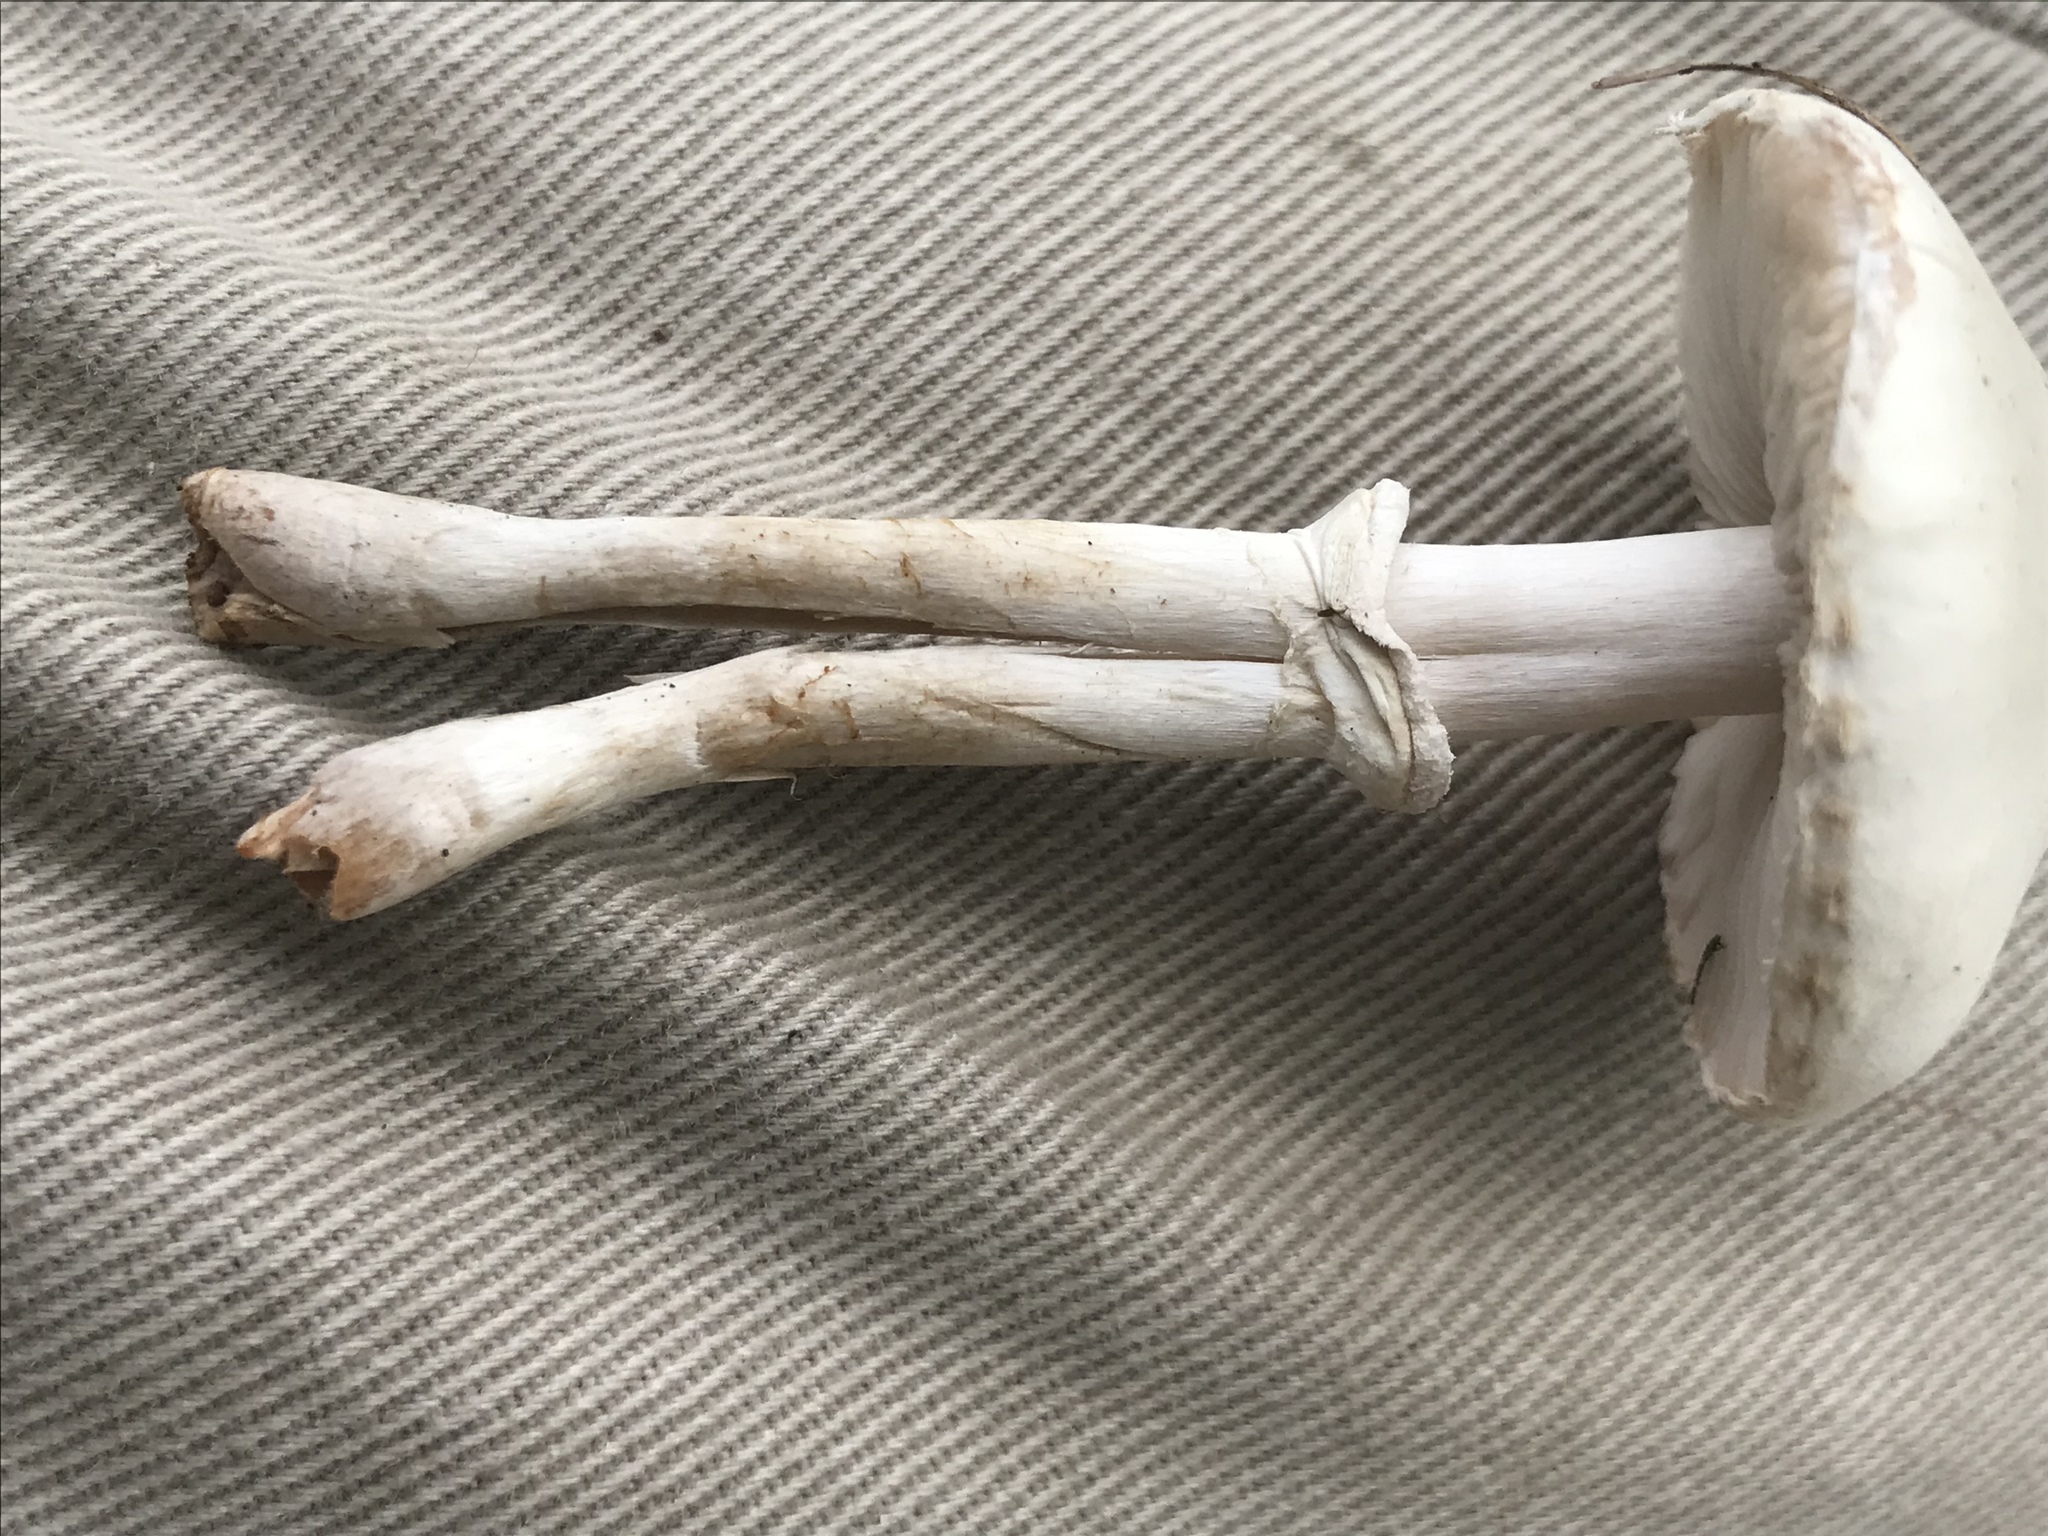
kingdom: Fungi
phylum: Basidiomycota
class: Agaricomycetes
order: Agaricales
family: Agaricaceae
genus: Leucoagaricus
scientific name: Leucoagaricus leucothites
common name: White dapperling
